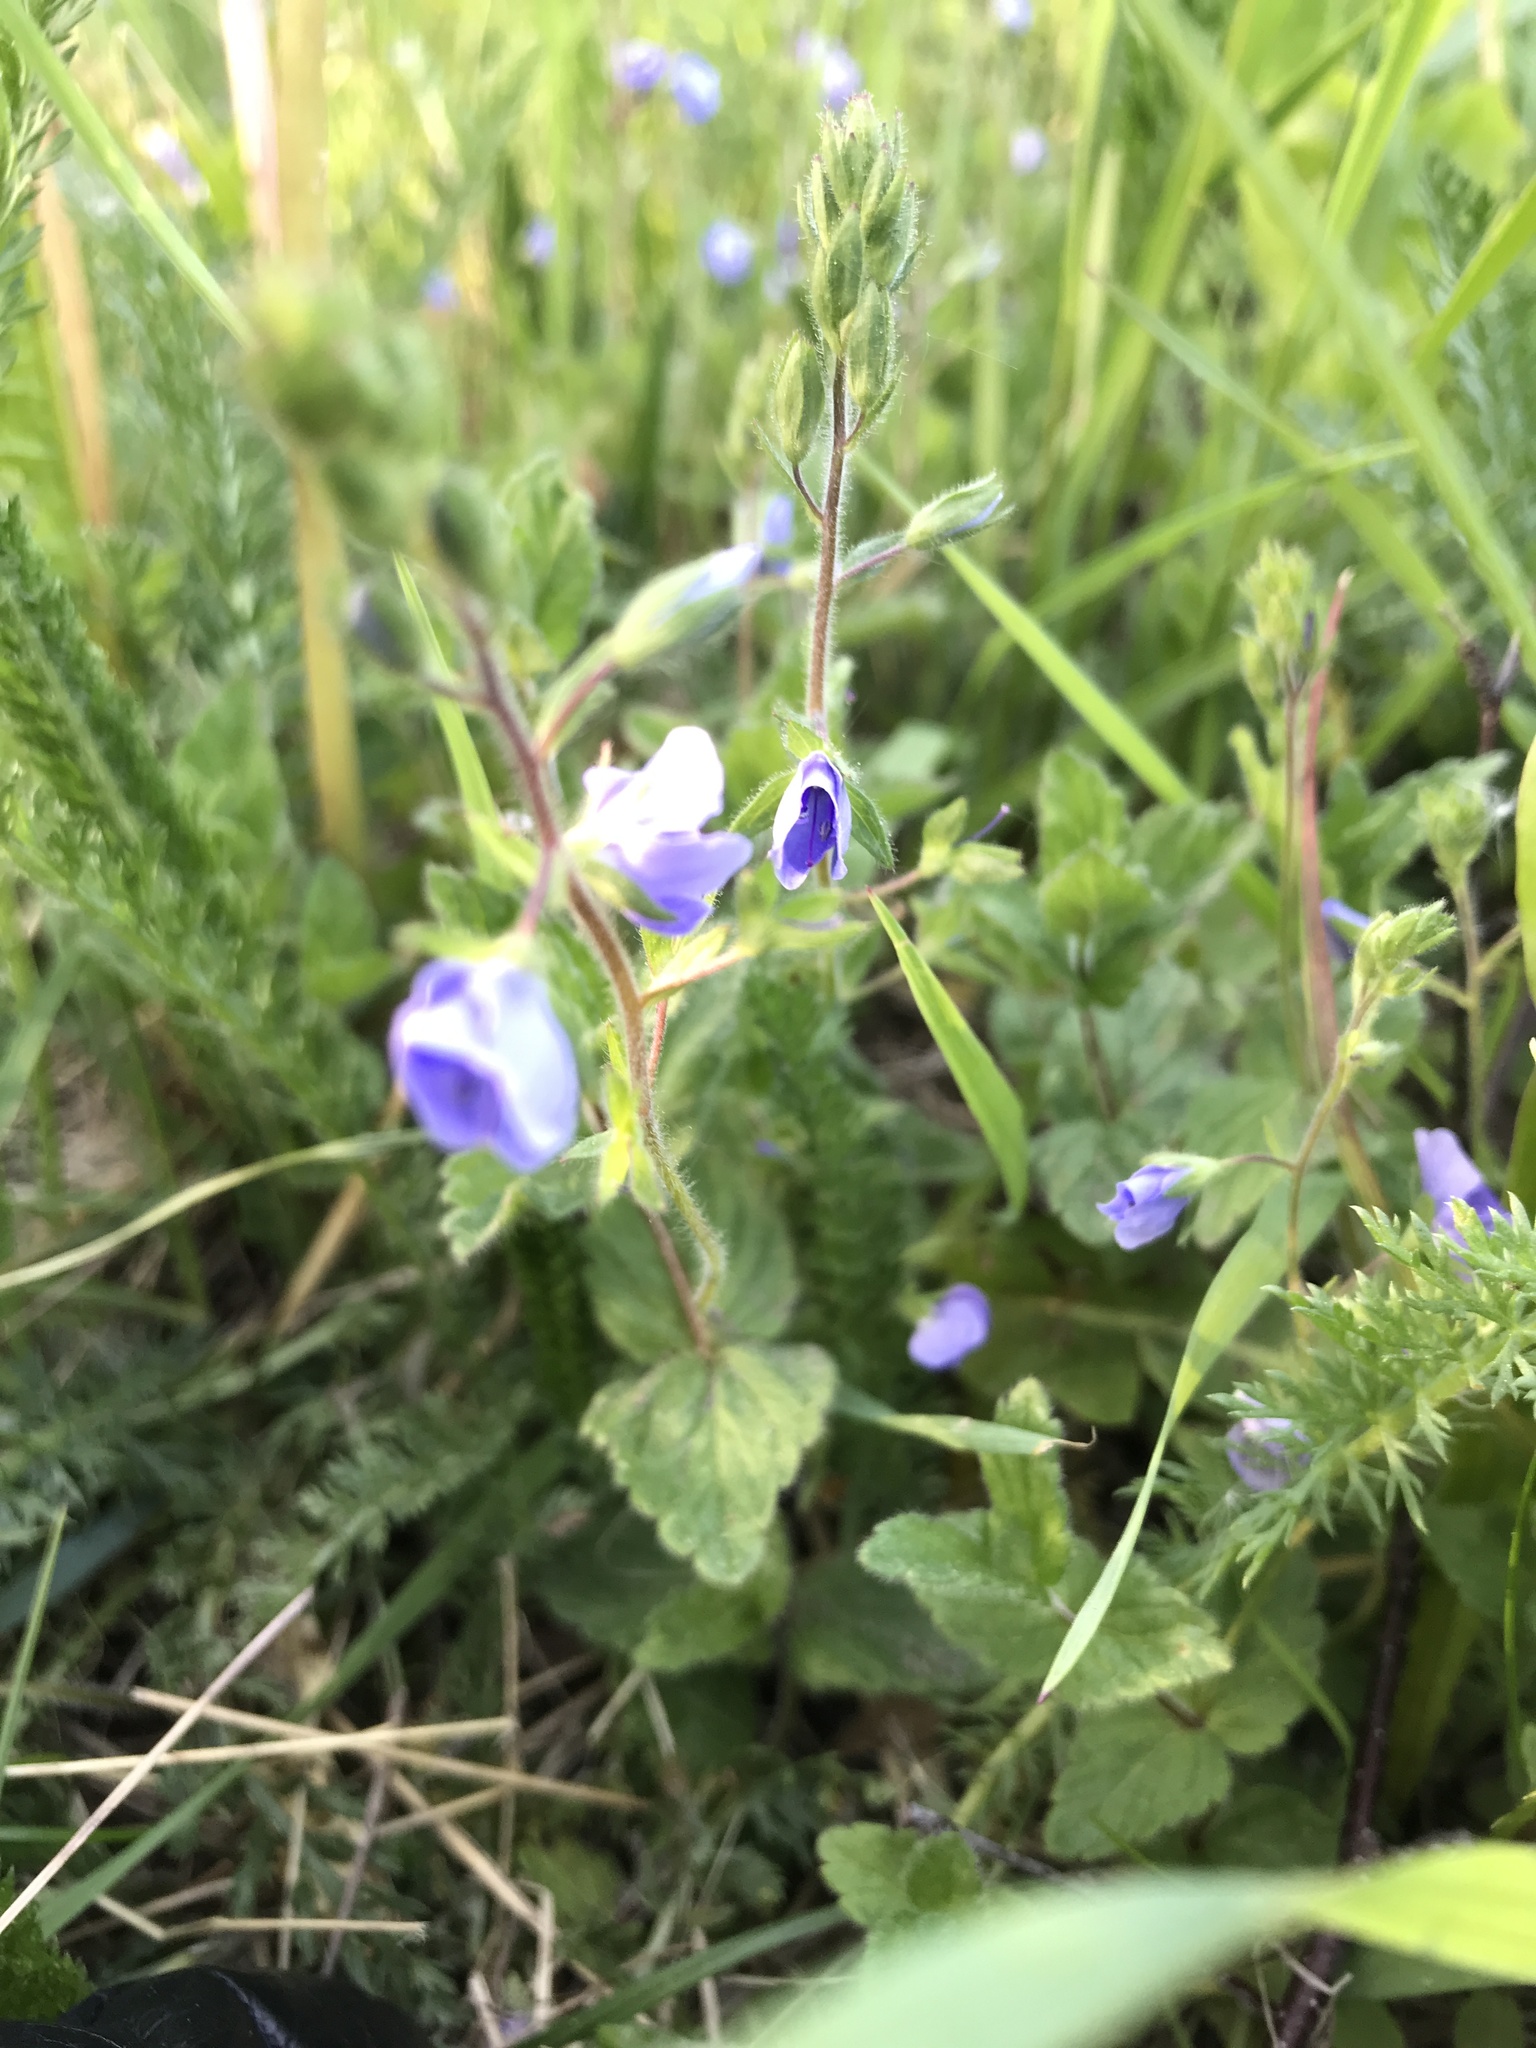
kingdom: Plantae
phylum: Tracheophyta
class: Magnoliopsida
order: Lamiales
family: Plantaginaceae
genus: Veronica
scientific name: Veronica chamaedrys
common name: Germander speedwell
